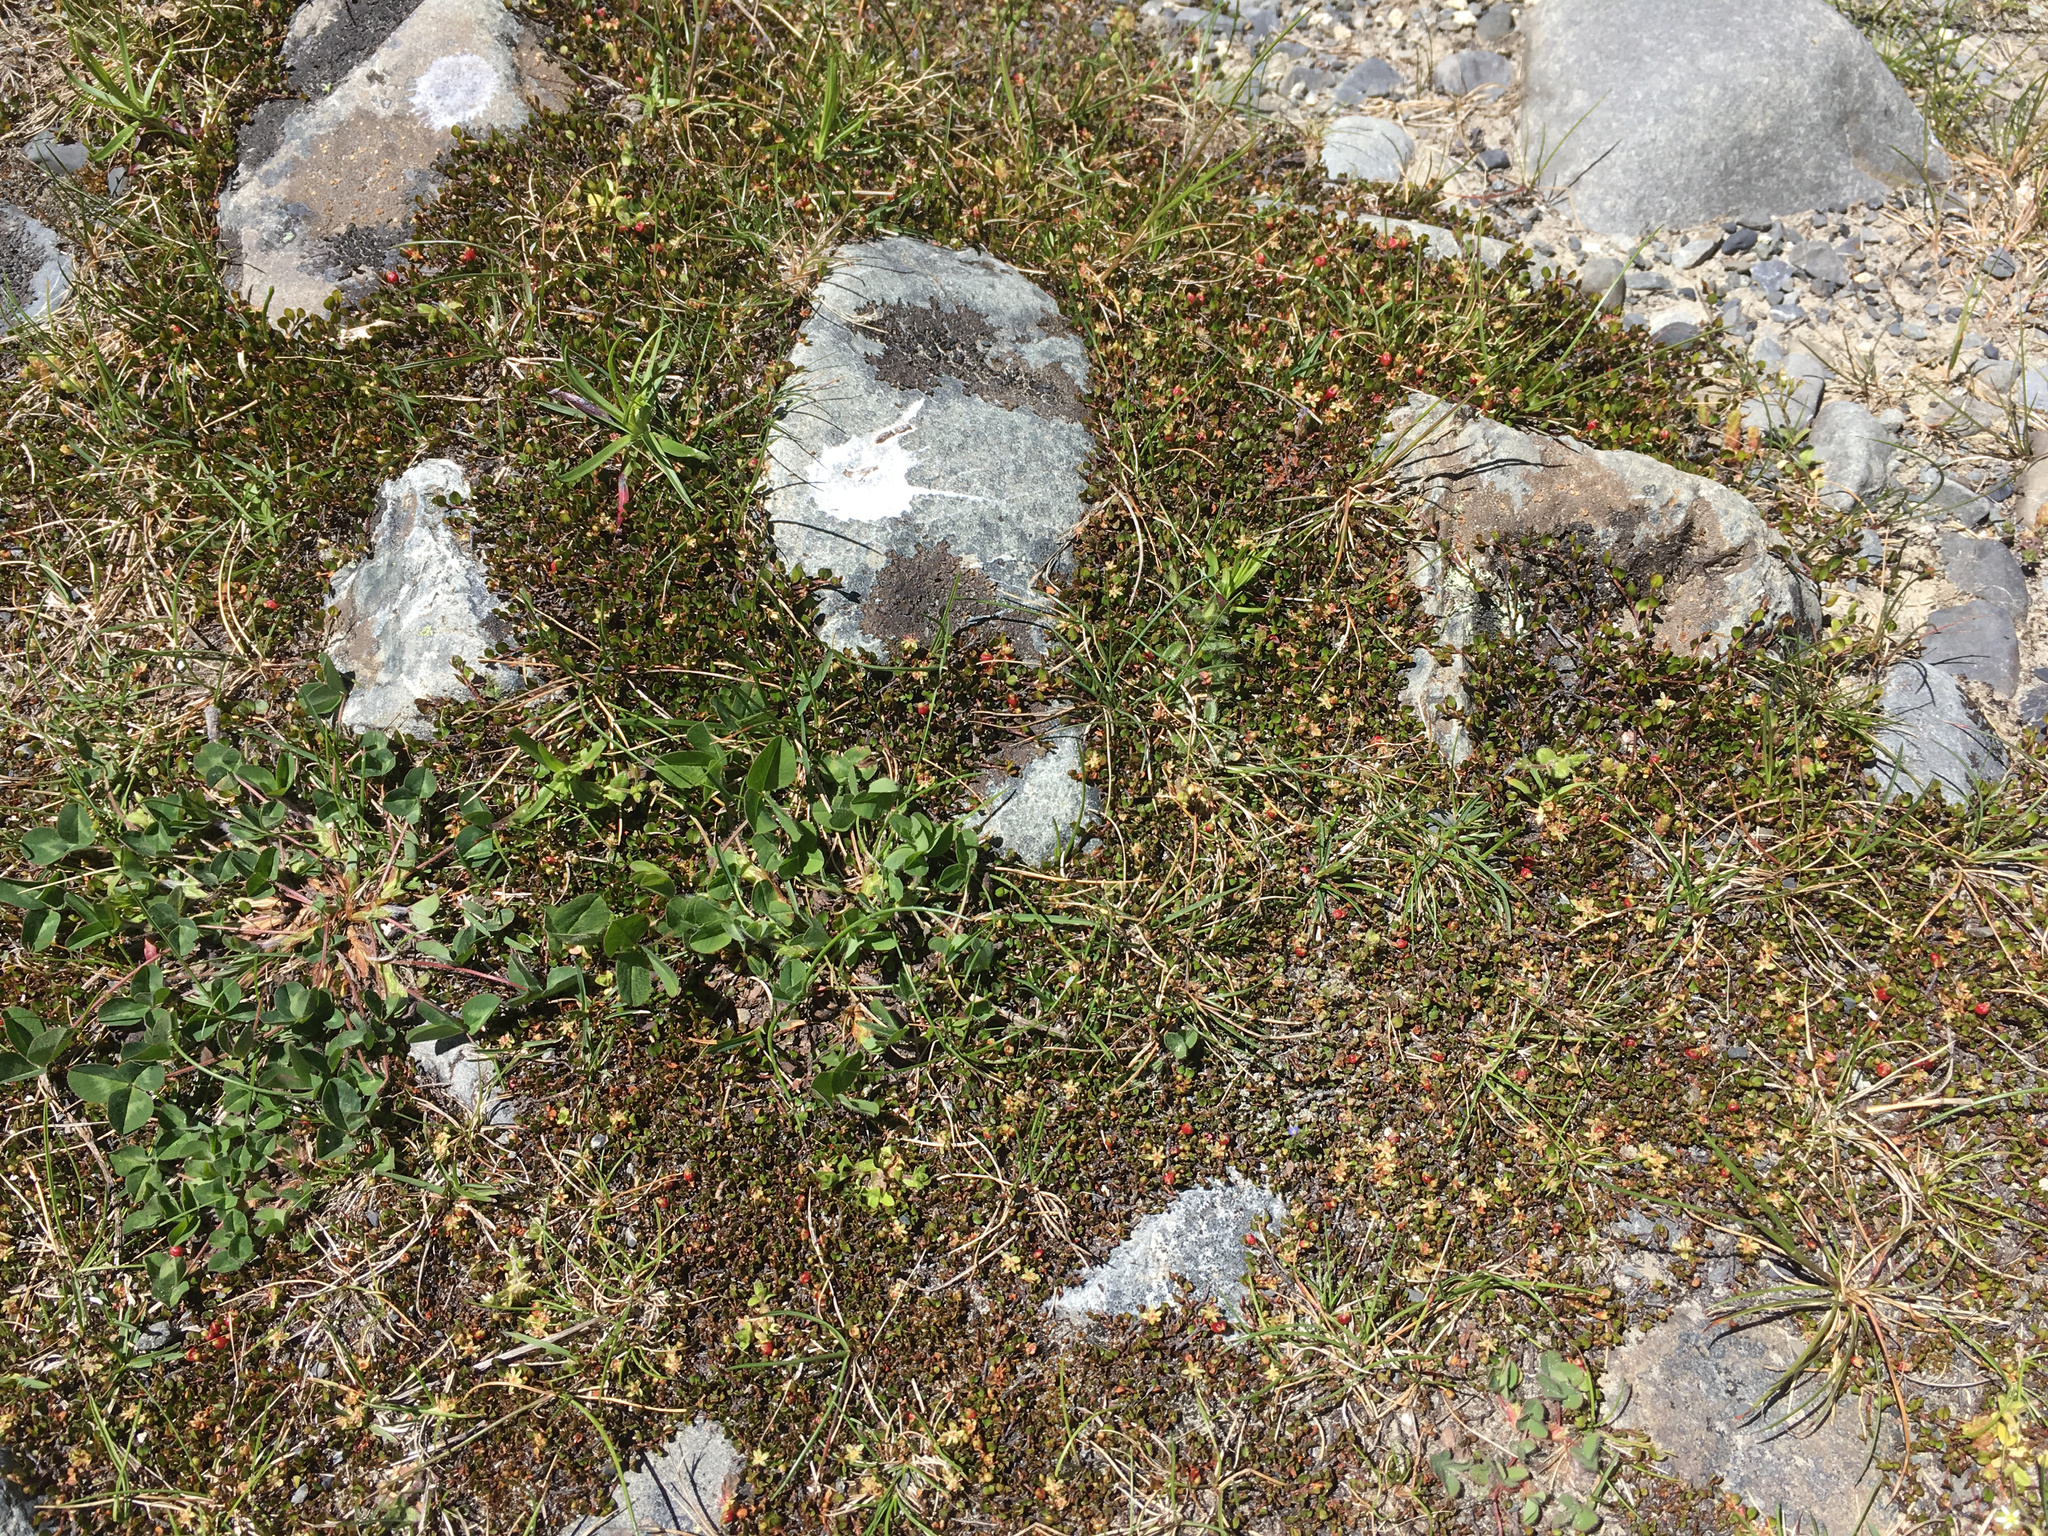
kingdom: Plantae
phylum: Tracheophyta
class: Magnoliopsida
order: Caryophyllales
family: Polygonaceae
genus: Muehlenbeckia
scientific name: Muehlenbeckia axillaris
